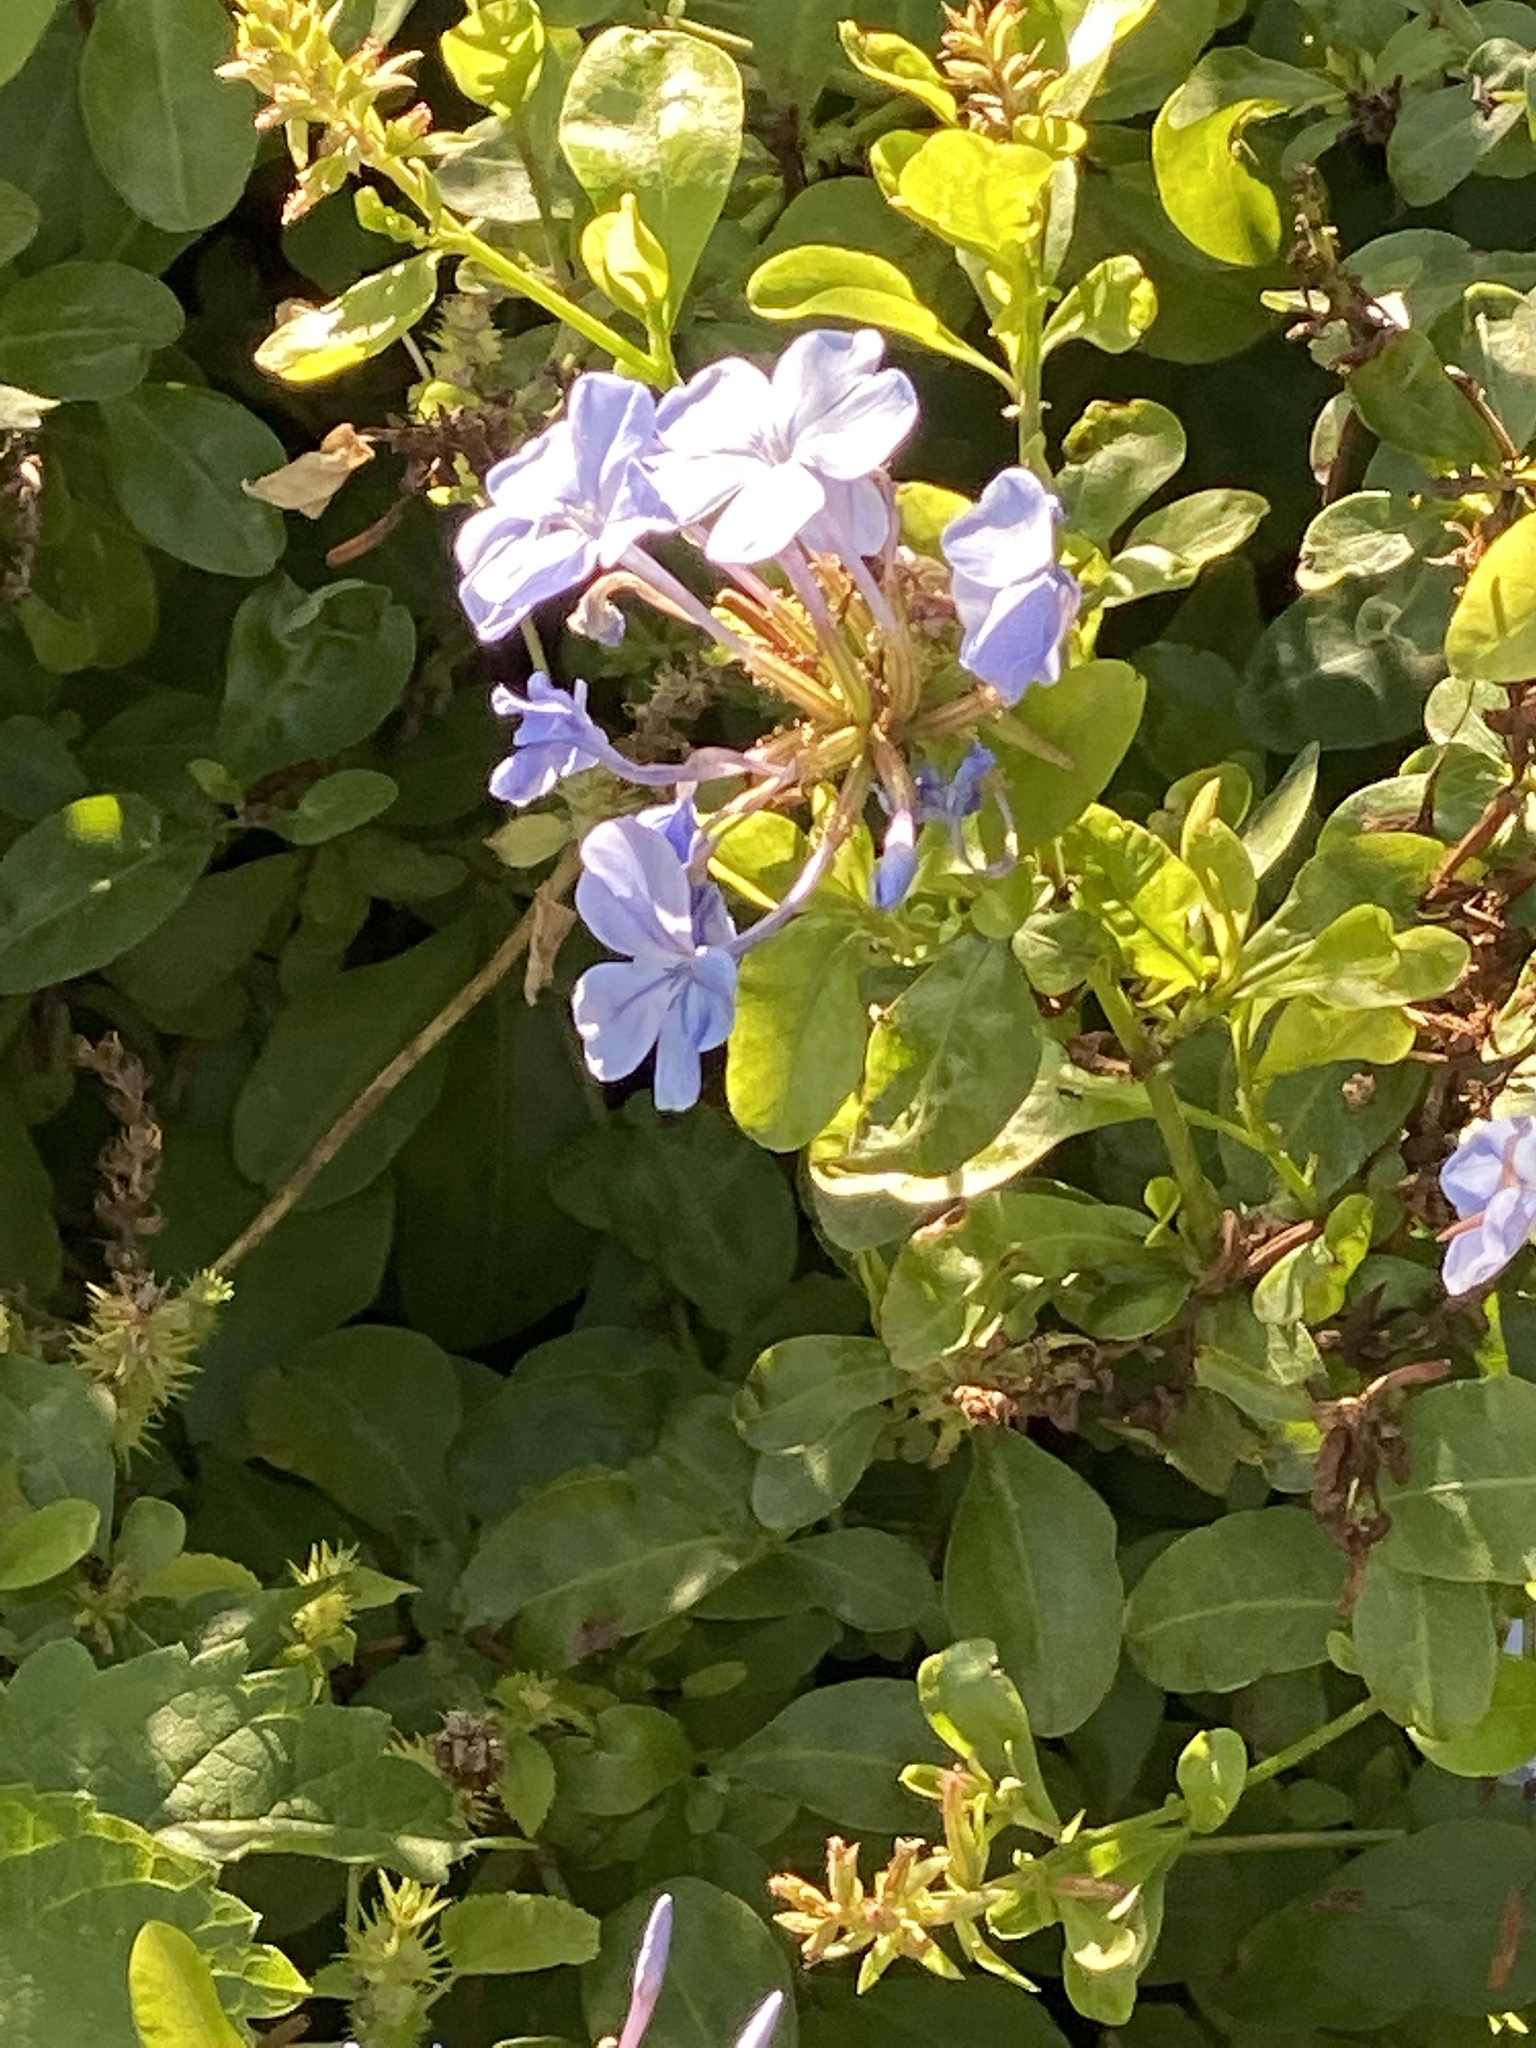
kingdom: Plantae
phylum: Tracheophyta
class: Magnoliopsida
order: Caryophyllales
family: Plumbaginaceae
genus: Plumbago
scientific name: Plumbago auriculata
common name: Cape leadwort
